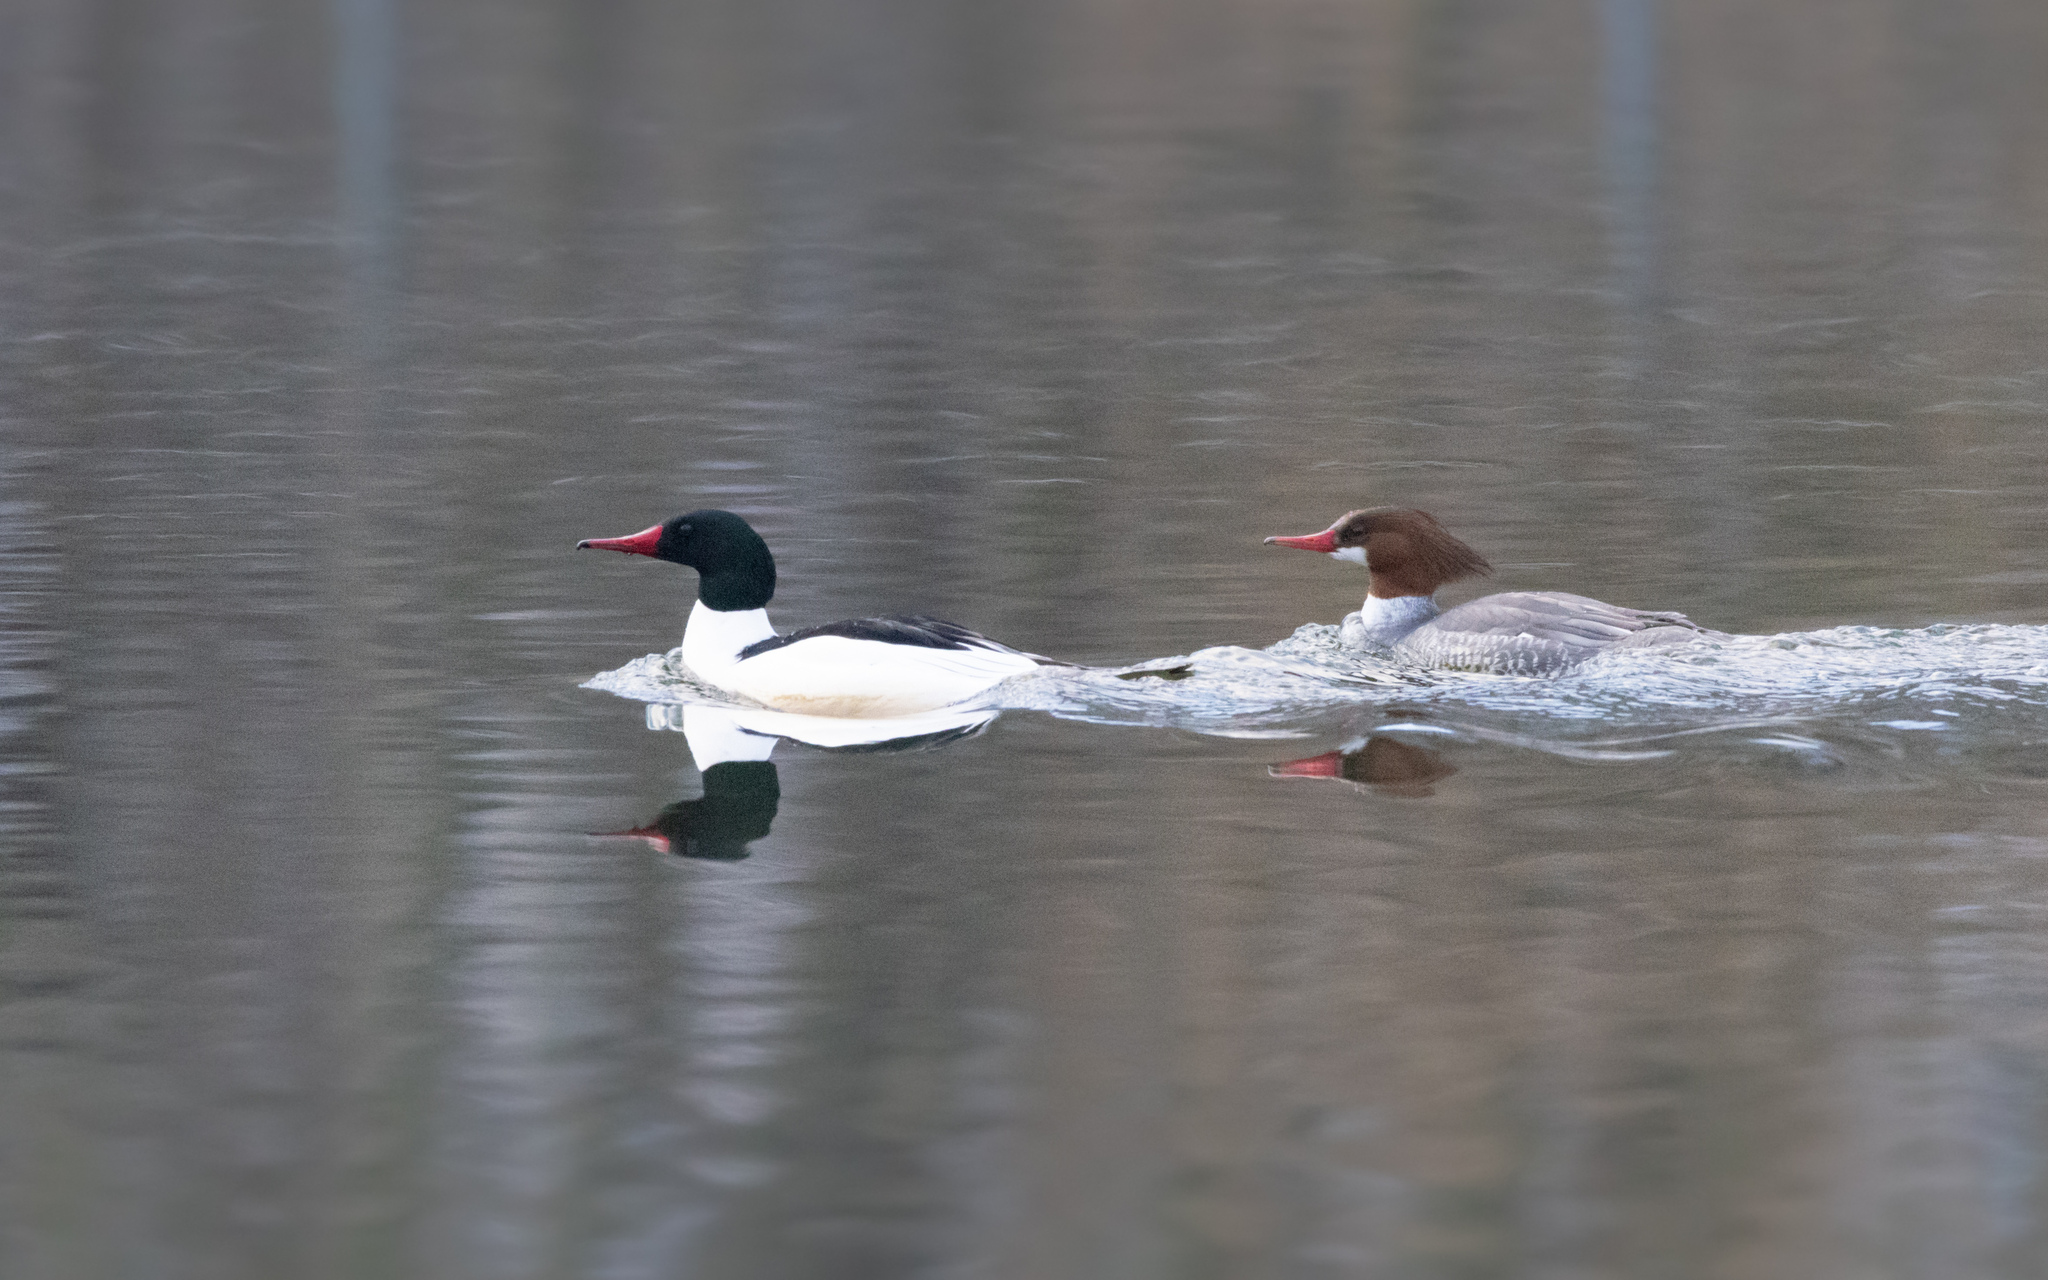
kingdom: Animalia
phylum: Chordata
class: Aves
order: Anseriformes
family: Anatidae
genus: Mergus
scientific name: Mergus merganser
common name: Common merganser
